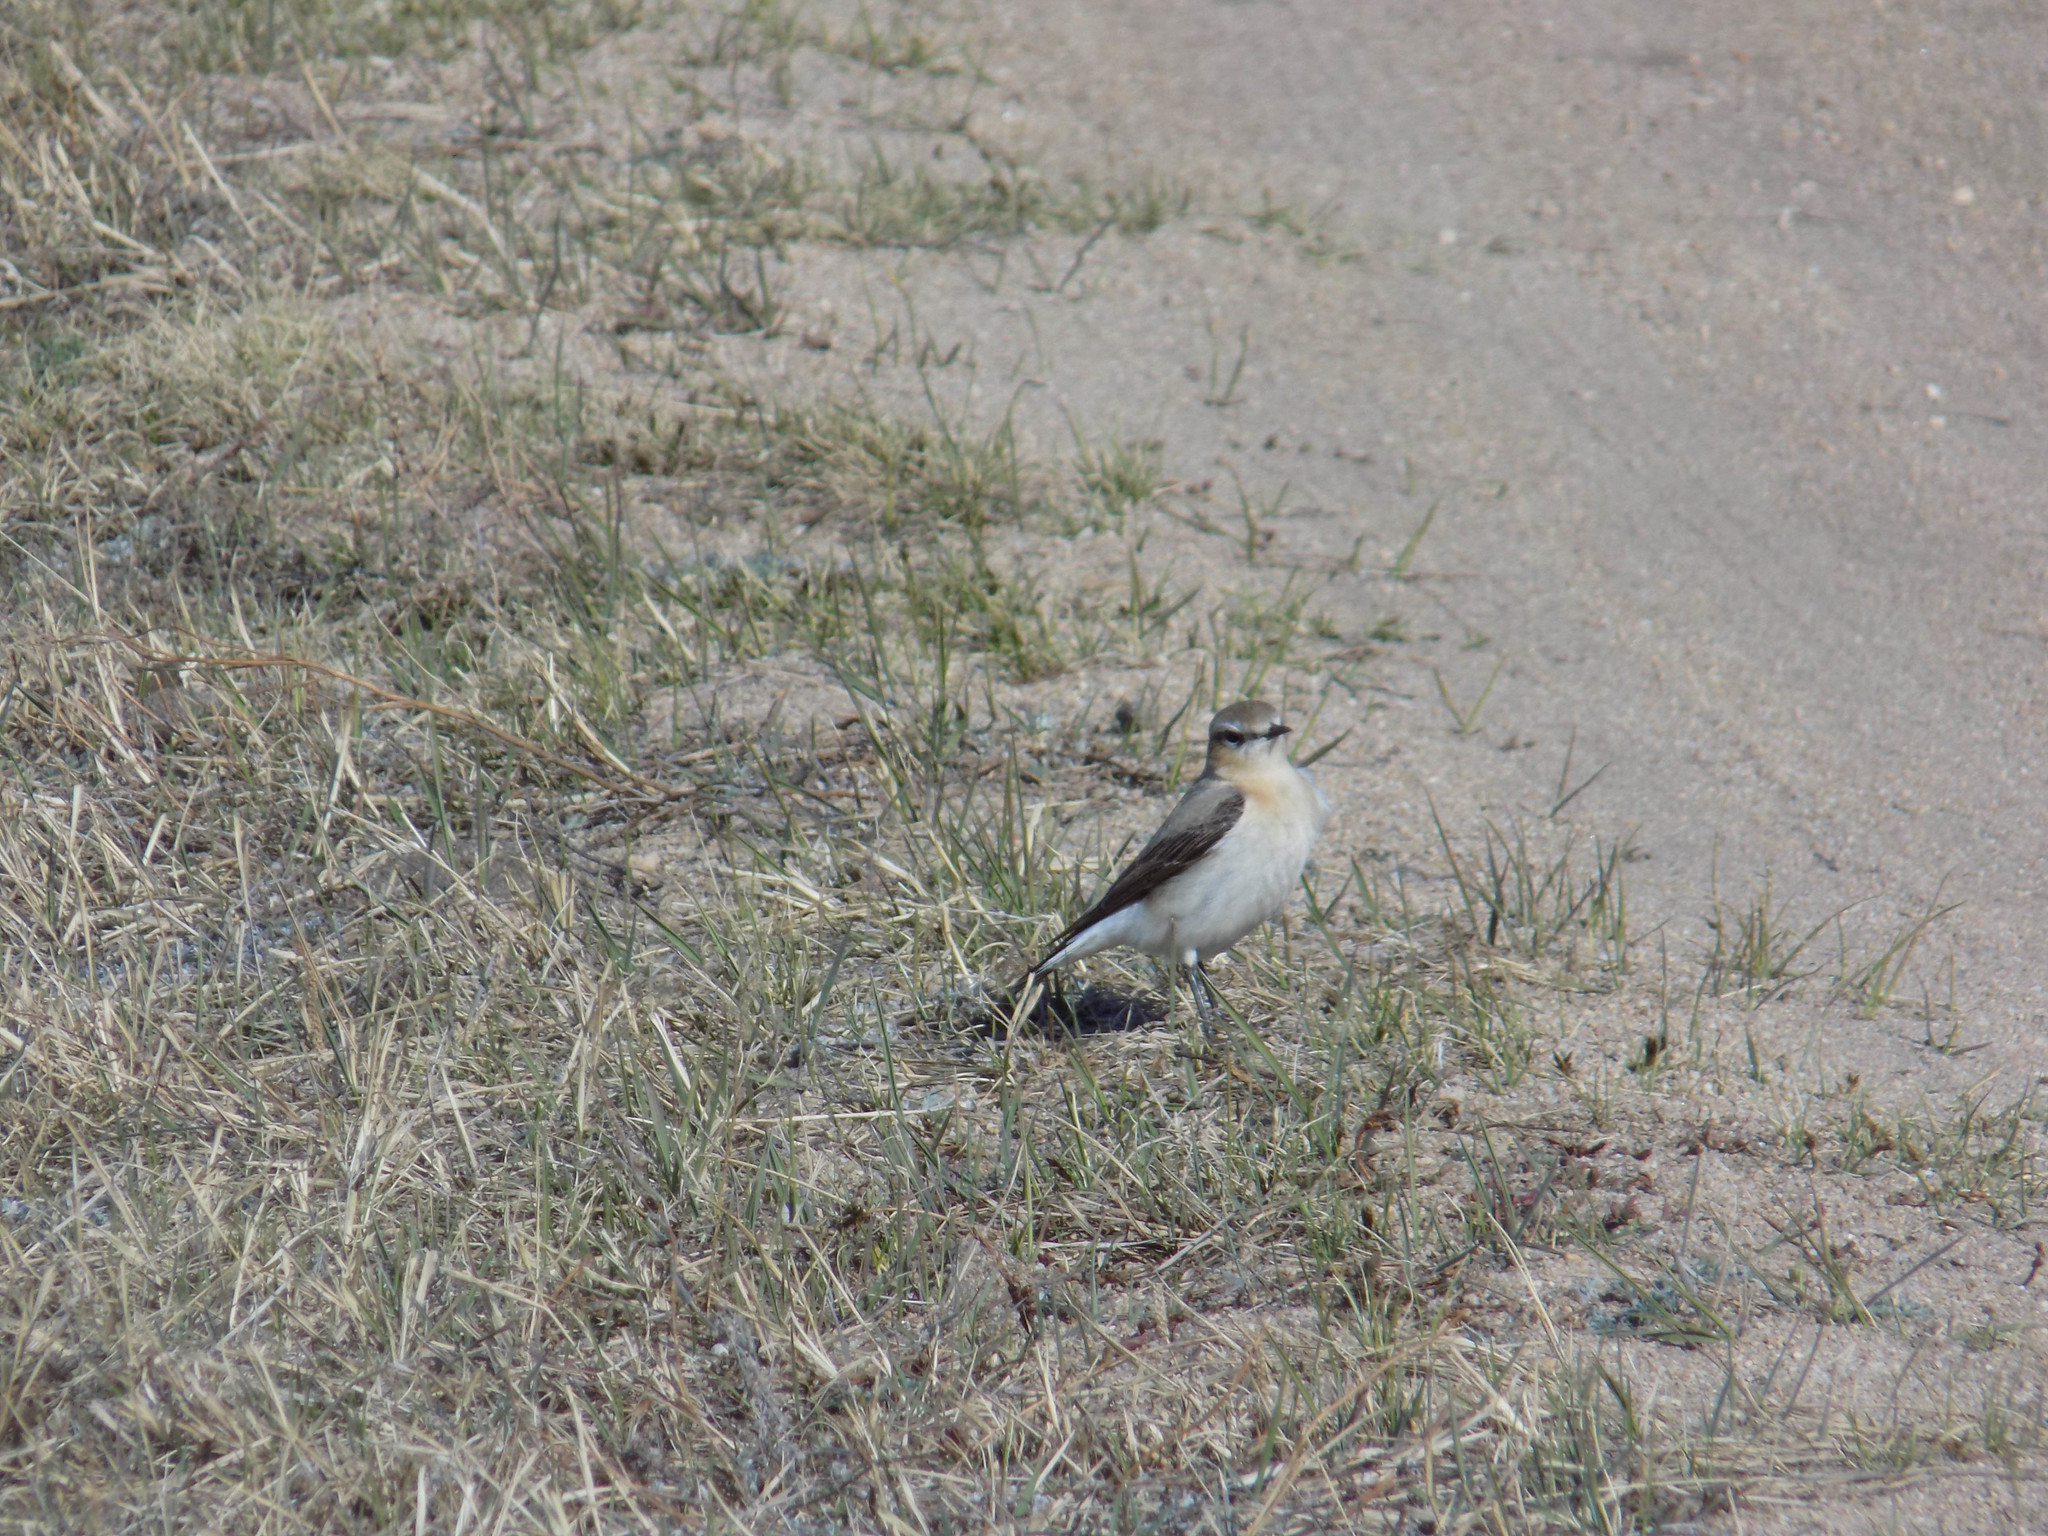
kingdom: Animalia
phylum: Chordata
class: Aves
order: Passeriformes
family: Muscicapidae
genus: Oenanthe
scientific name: Oenanthe oenanthe
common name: Northern wheatear
